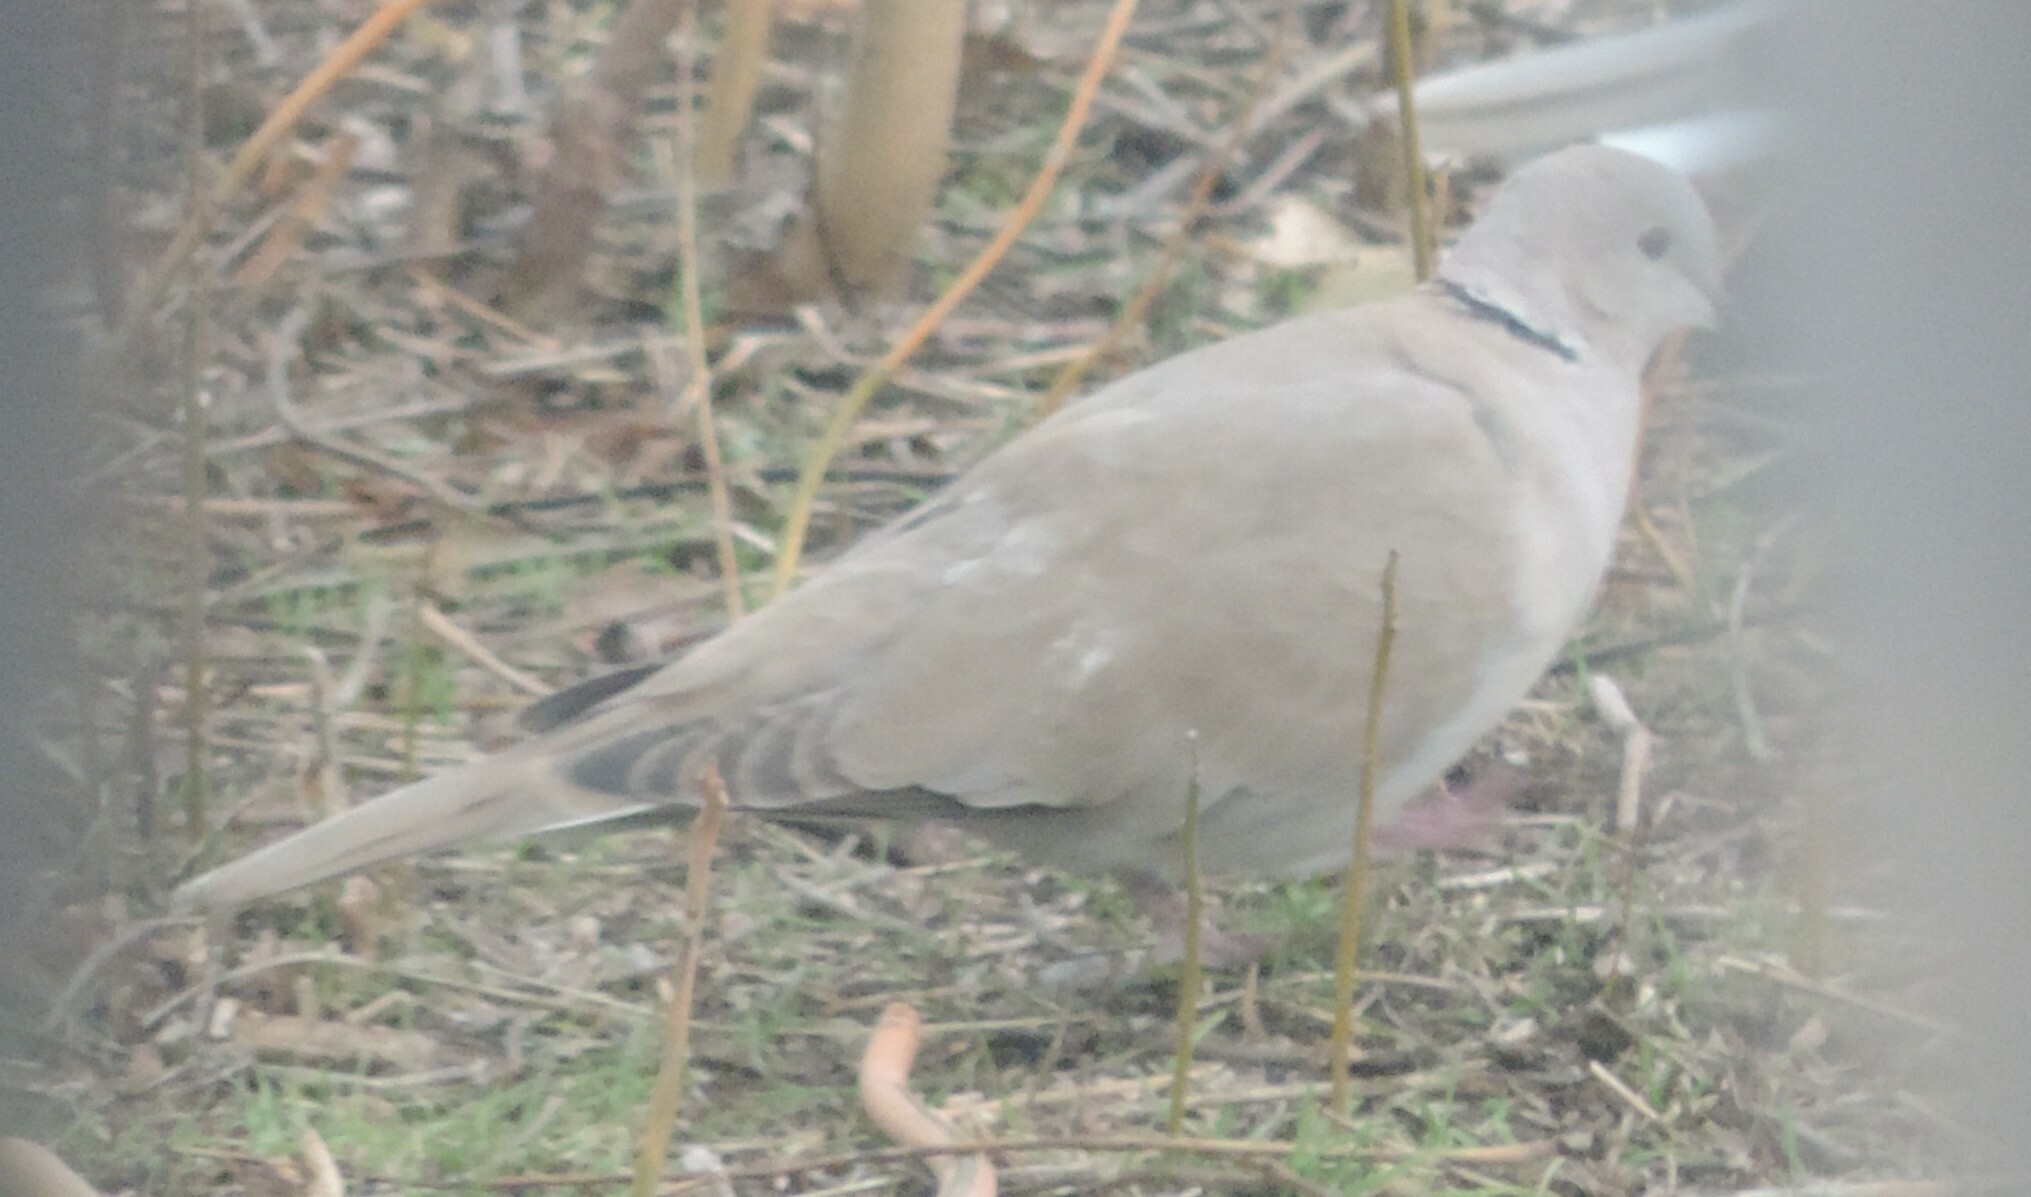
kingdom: Animalia
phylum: Chordata
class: Aves
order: Columbiformes
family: Columbidae
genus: Streptopelia
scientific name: Streptopelia decaocto
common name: Eurasian collared dove
